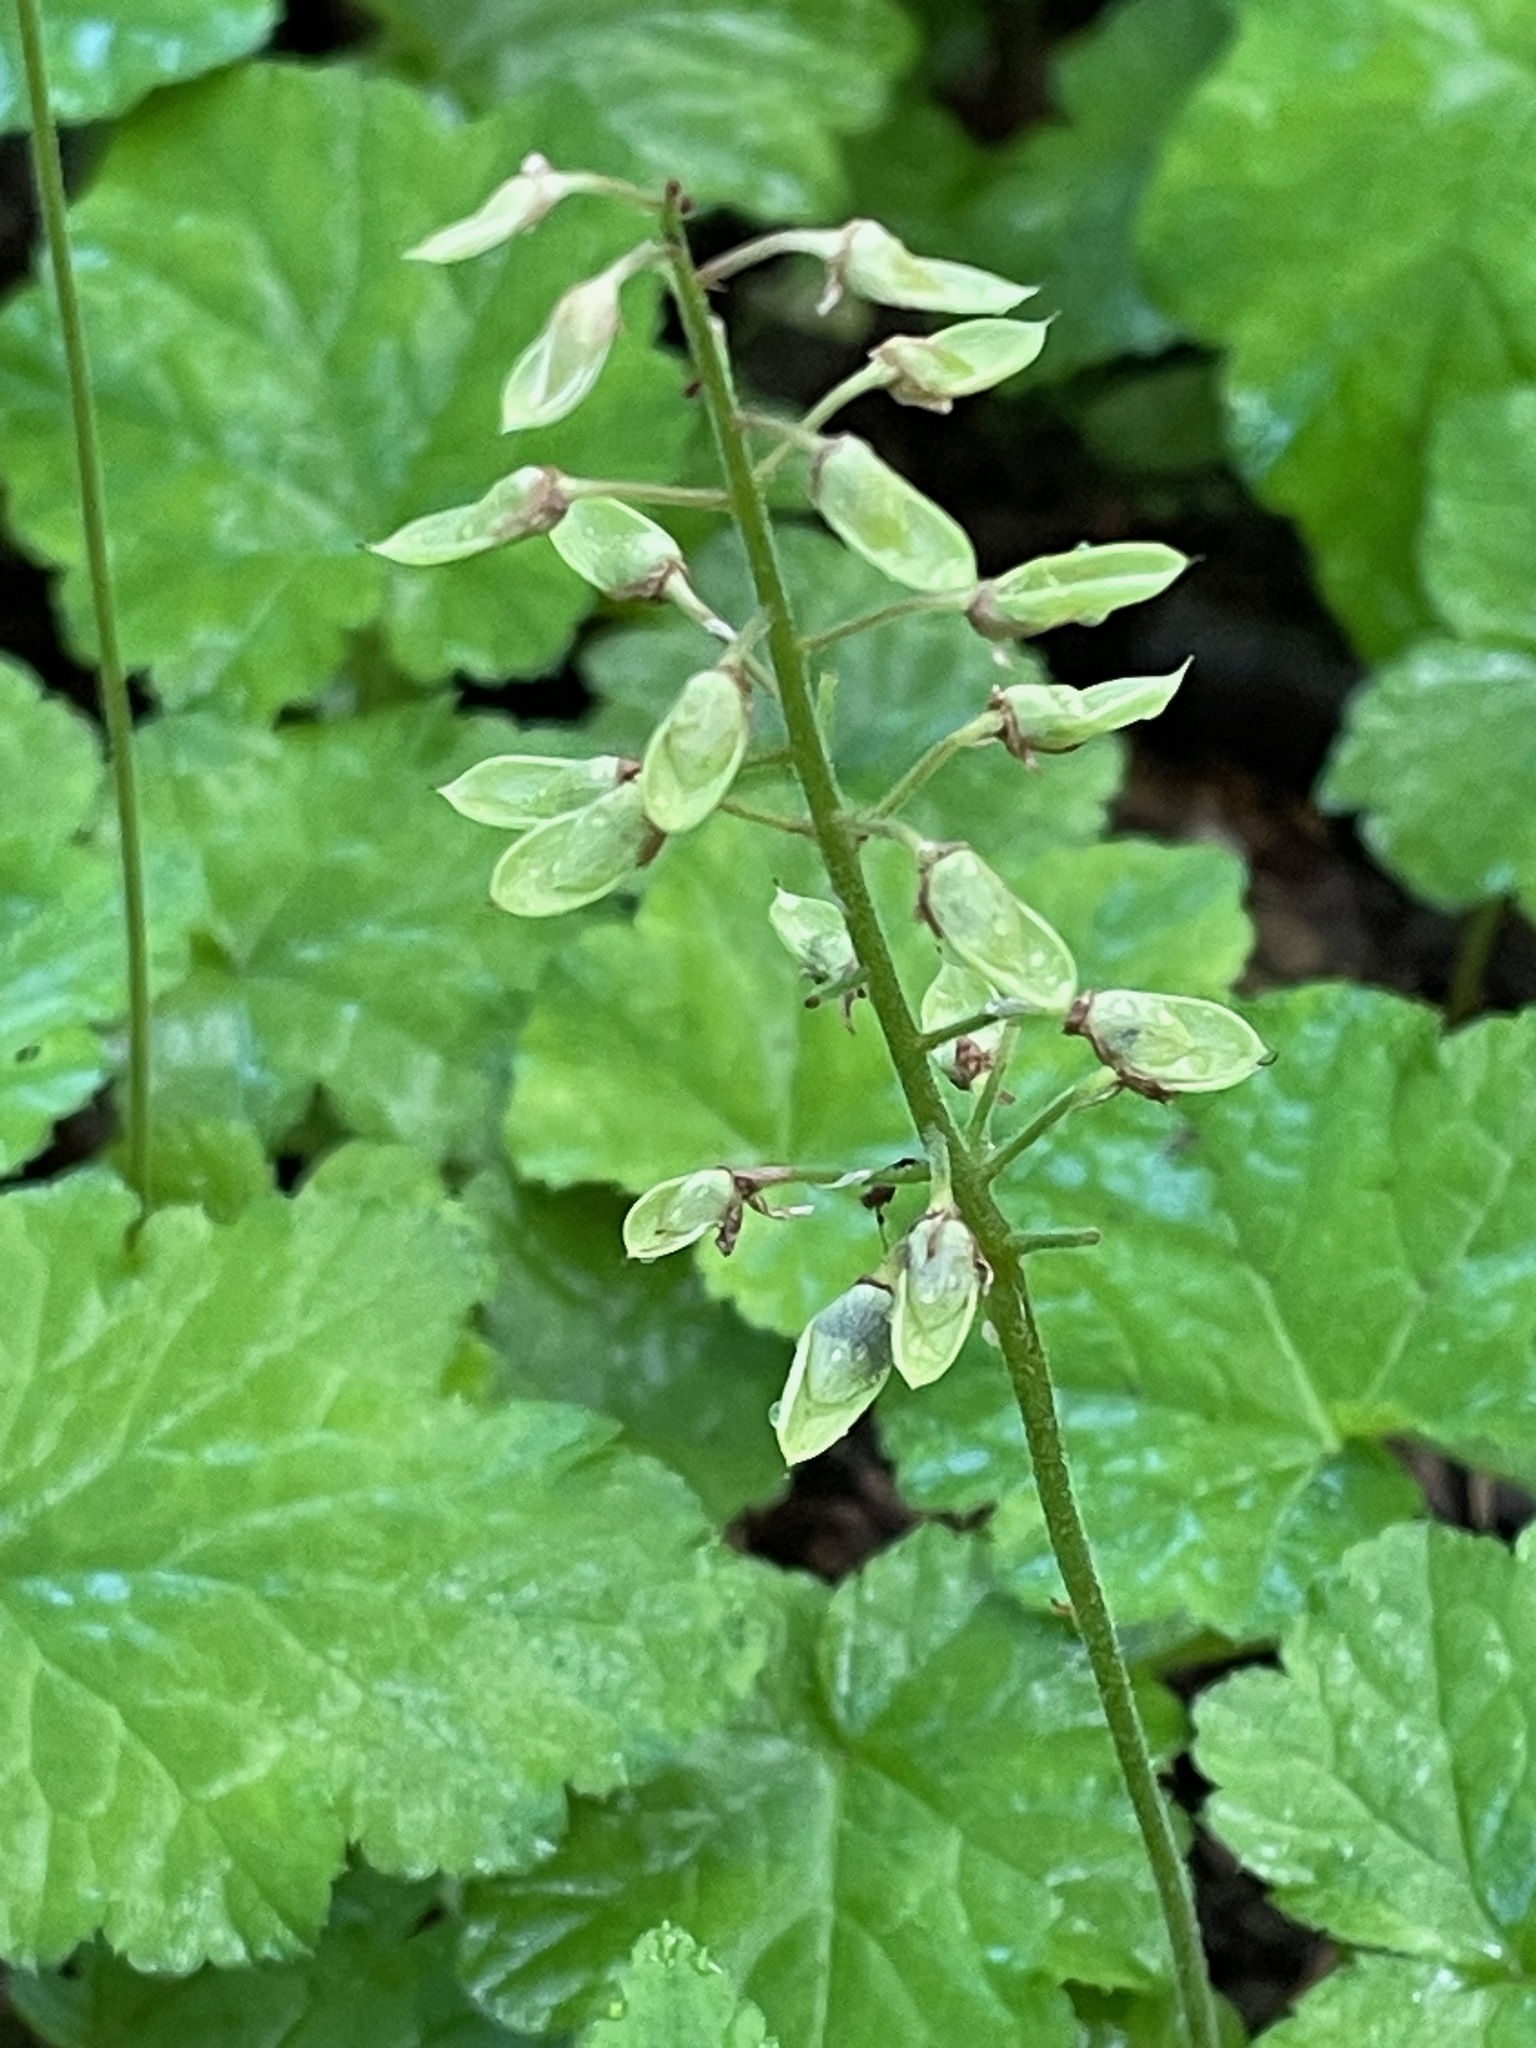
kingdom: Plantae
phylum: Tracheophyta
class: Magnoliopsida
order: Saxifragales
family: Saxifragaceae
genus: Tiarella
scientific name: Tiarella stolonifera
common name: Stoloniferous foamflower
